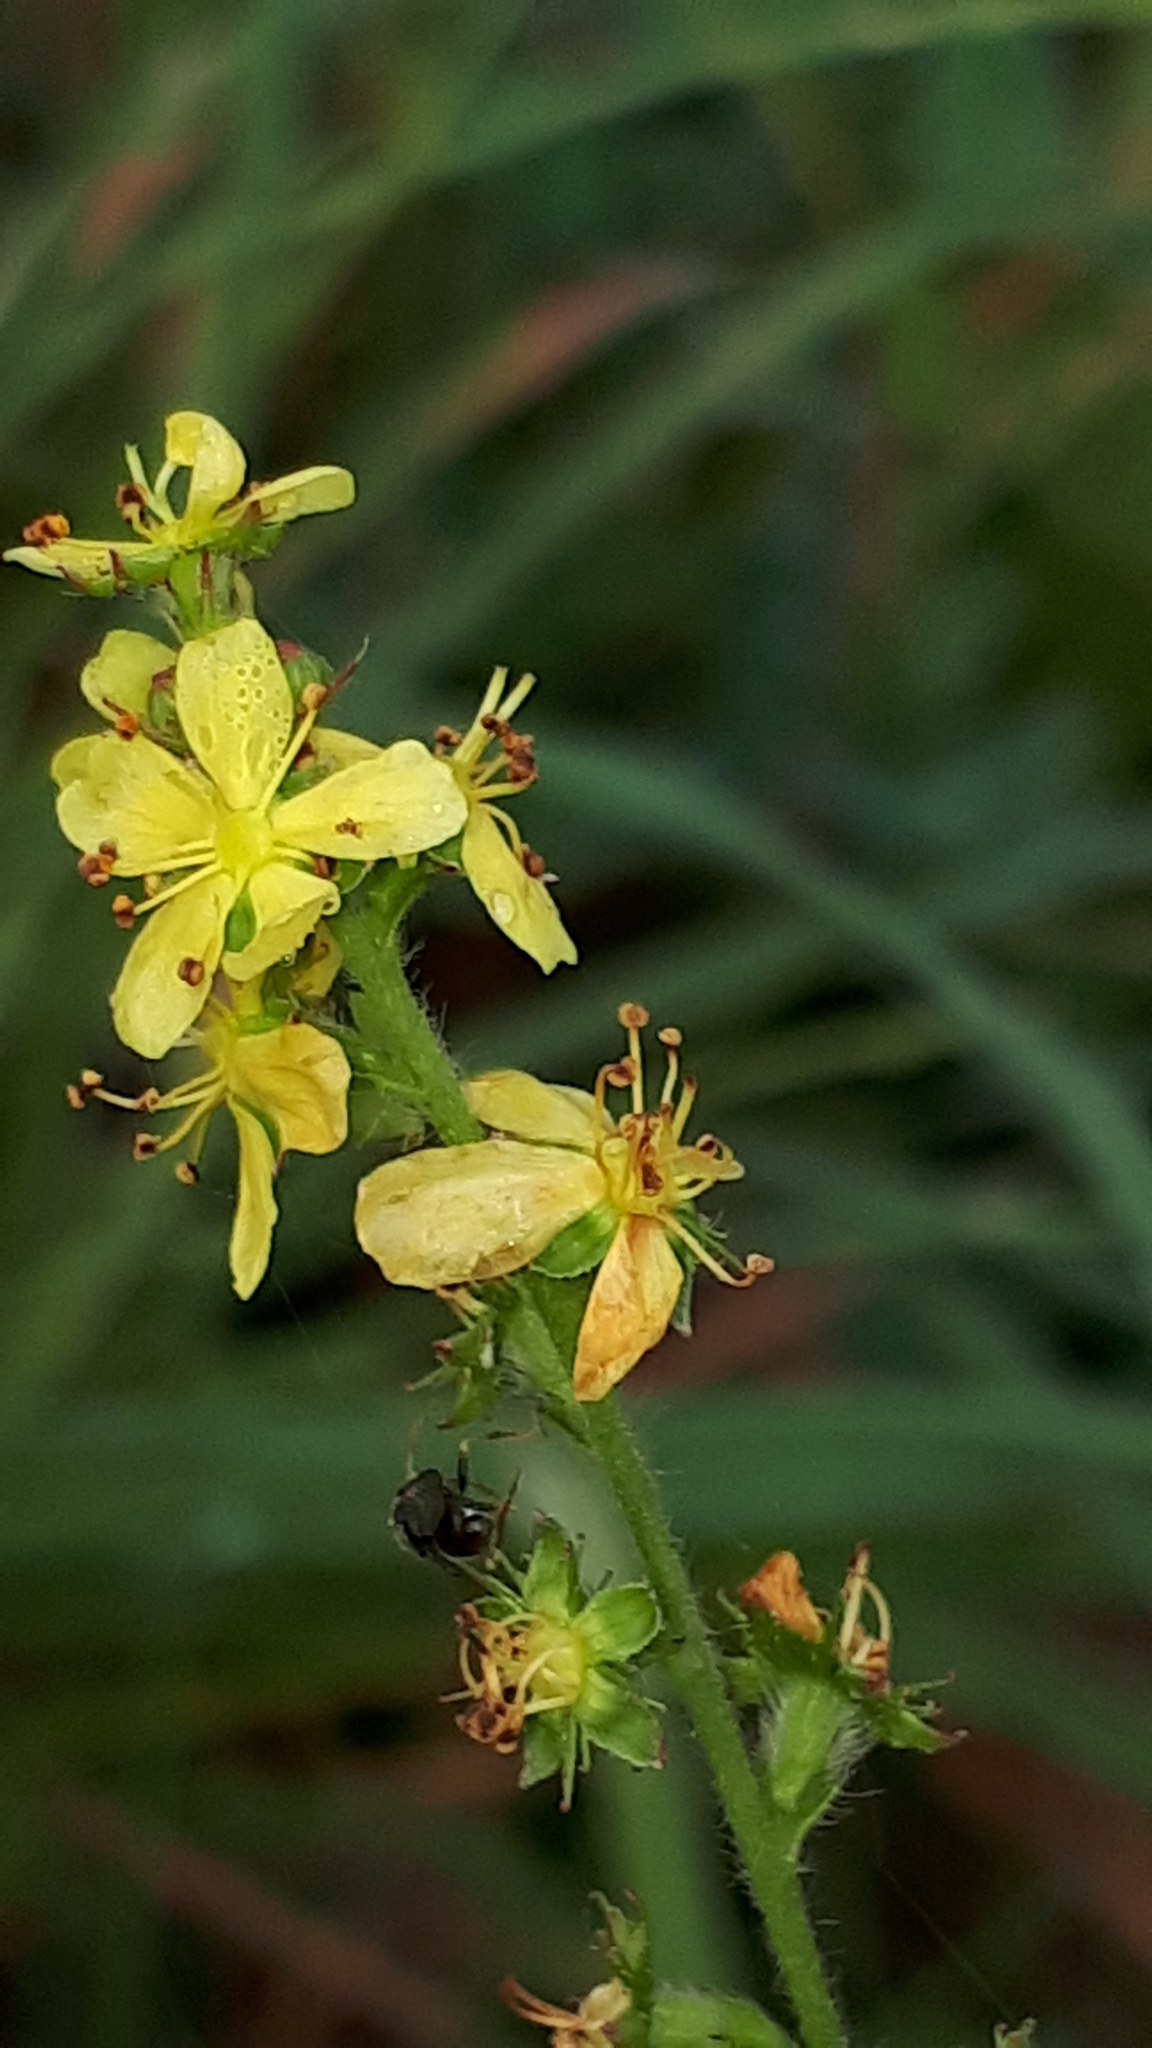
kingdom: Plantae
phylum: Tracheophyta
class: Magnoliopsida
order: Rosales
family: Rosaceae
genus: Agrimonia
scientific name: Agrimonia eupatoria
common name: Agrimony
